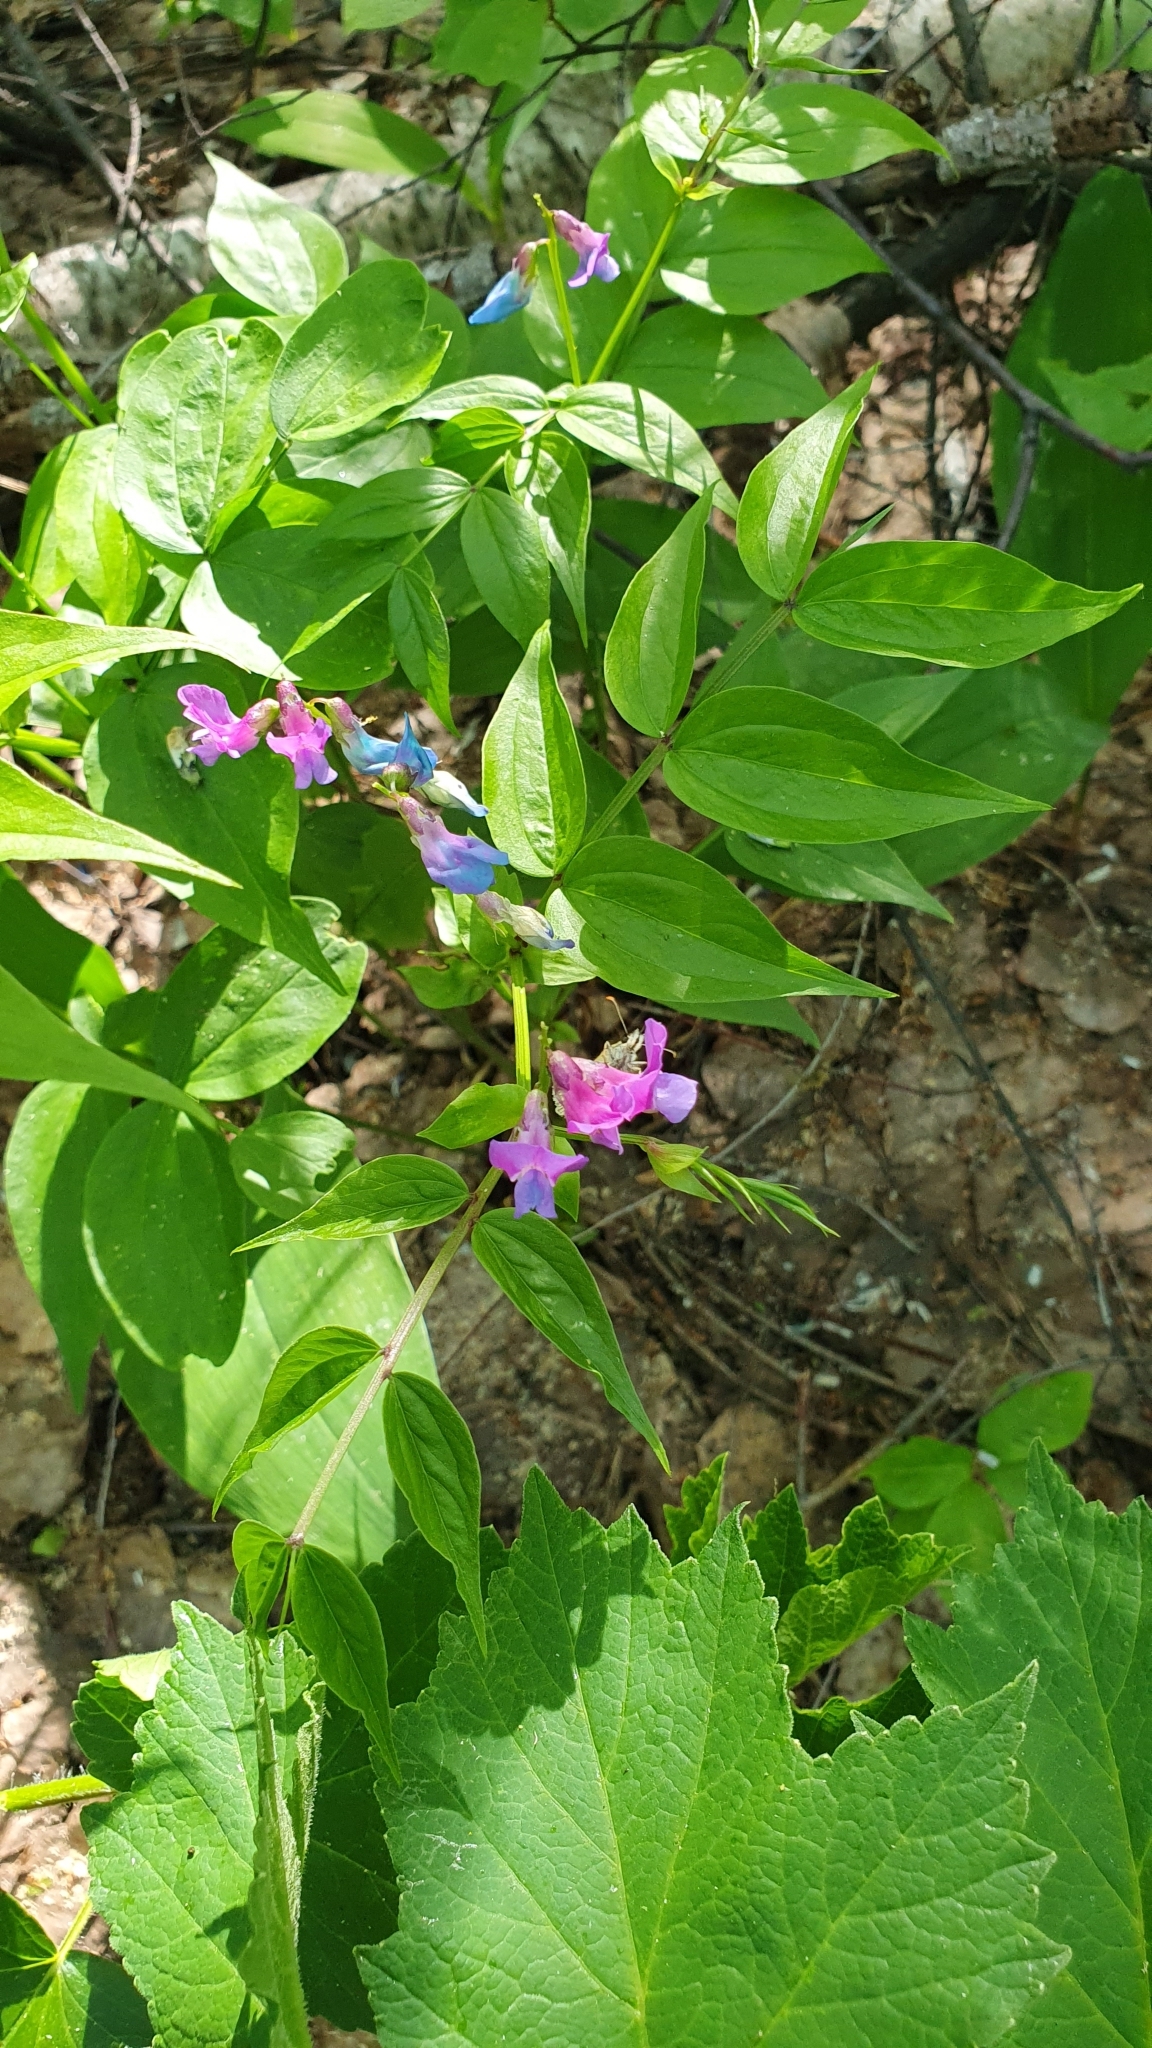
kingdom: Plantae
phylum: Tracheophyta
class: Magnoliopsida
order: Fabales
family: Fabaceae
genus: Lathyrus
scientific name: Lathyrus vernus
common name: Spring pea
